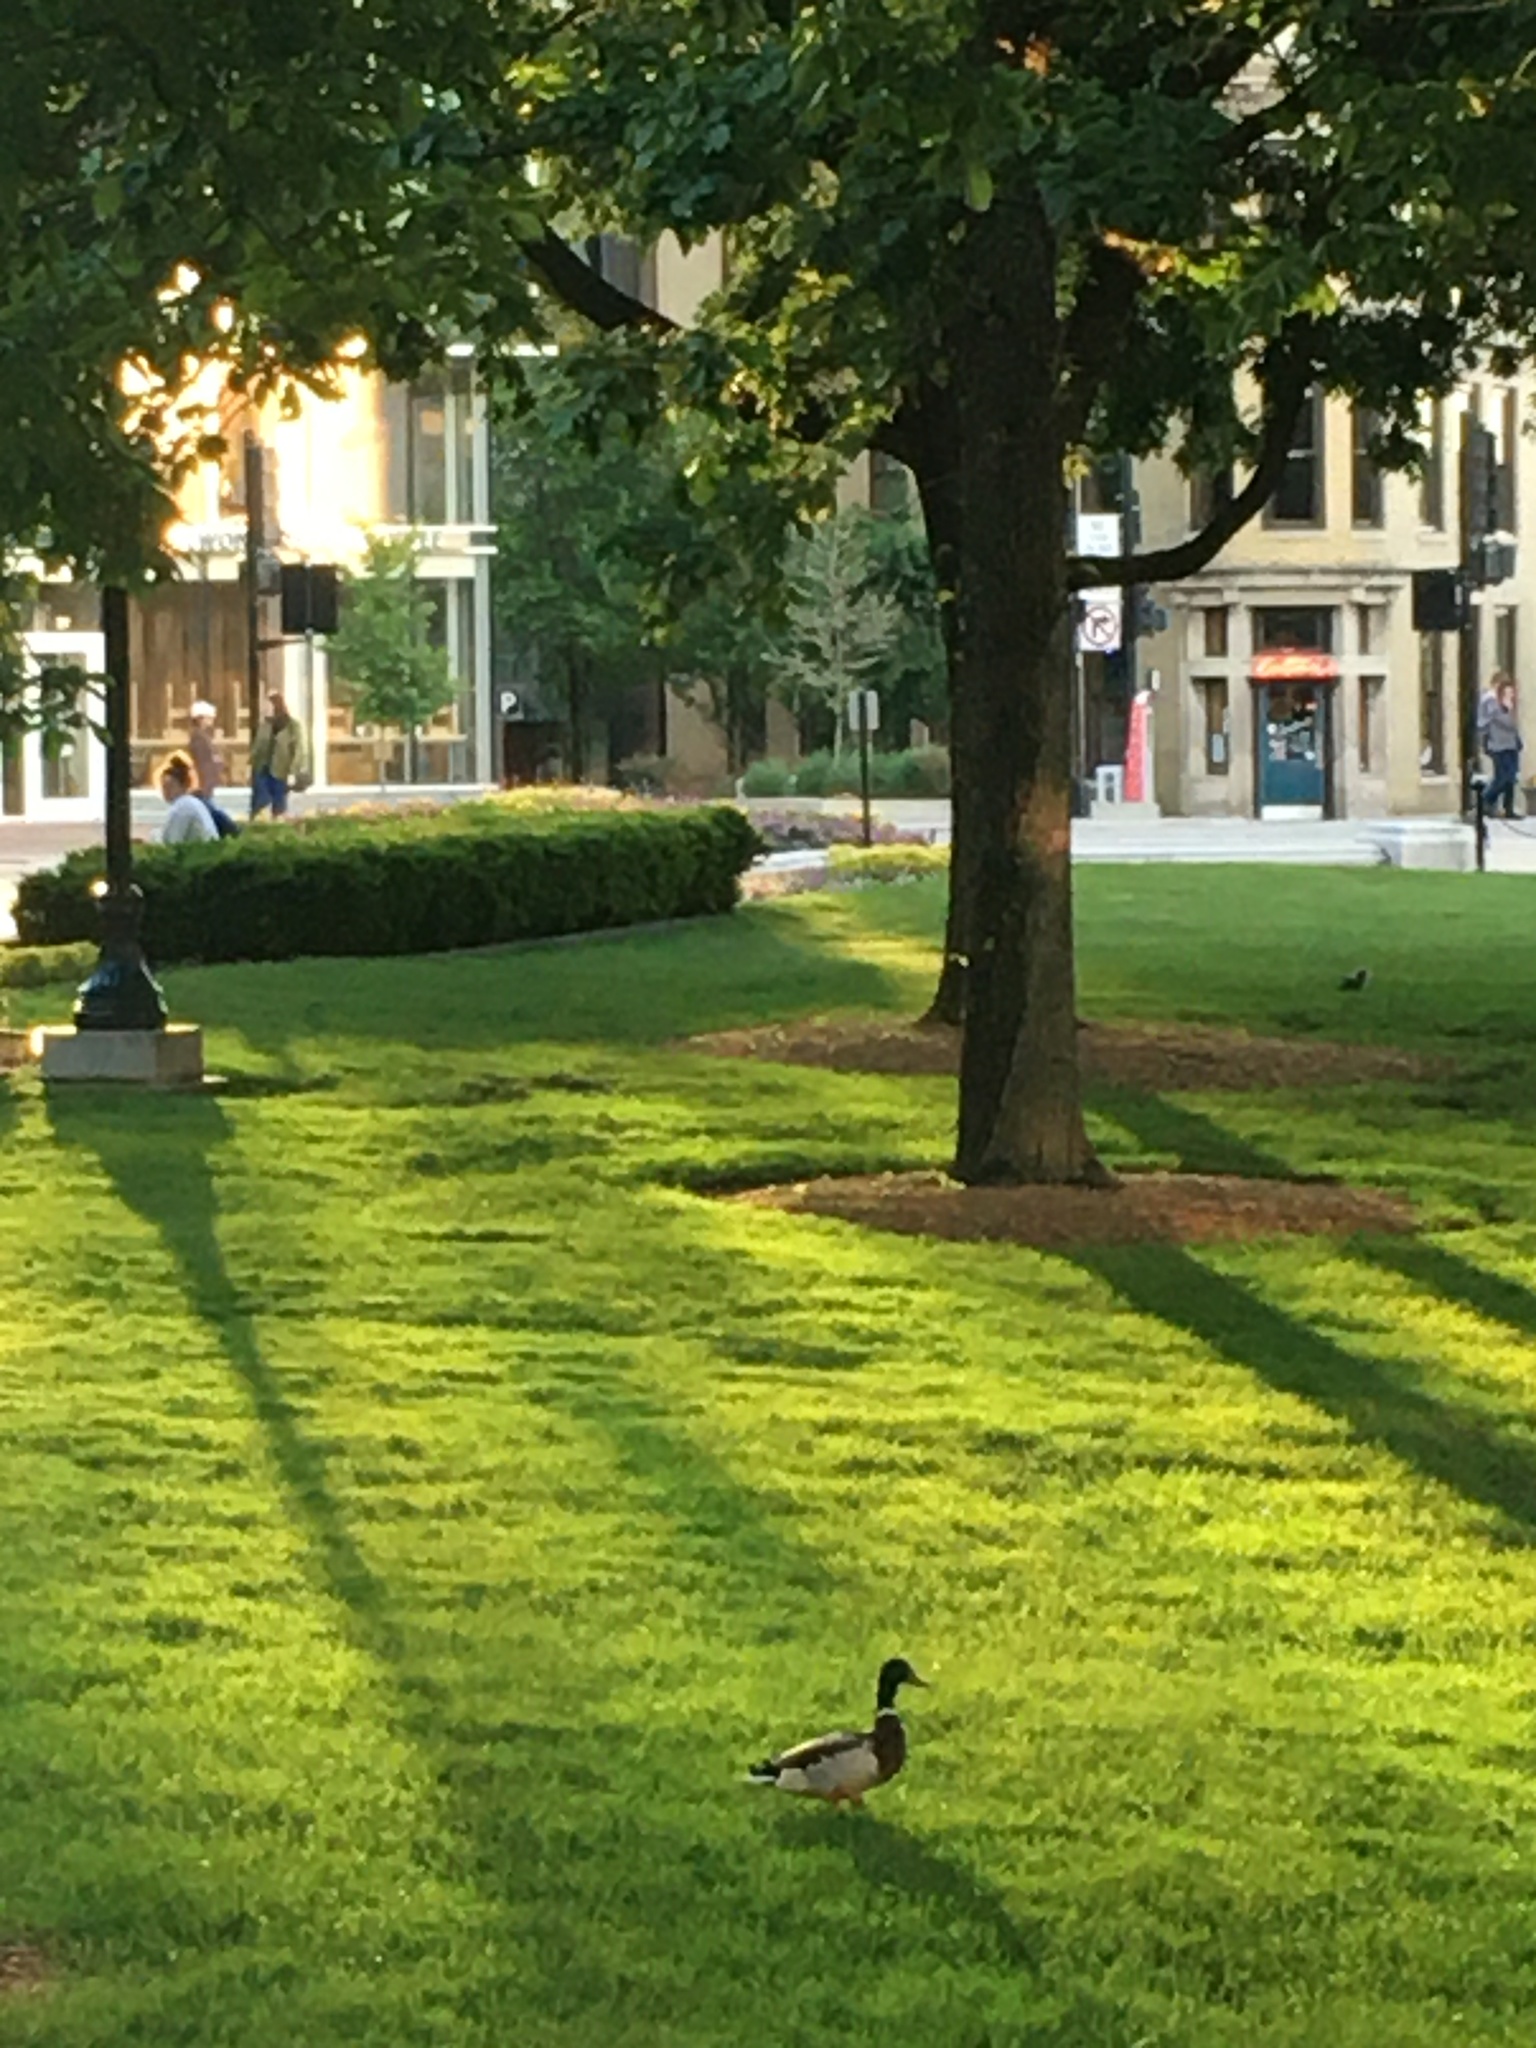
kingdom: Animalia
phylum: Chordata
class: Aves
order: Anseriformes
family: Anatidae
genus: Anas
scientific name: Anas platyrhynchos
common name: Mallard
